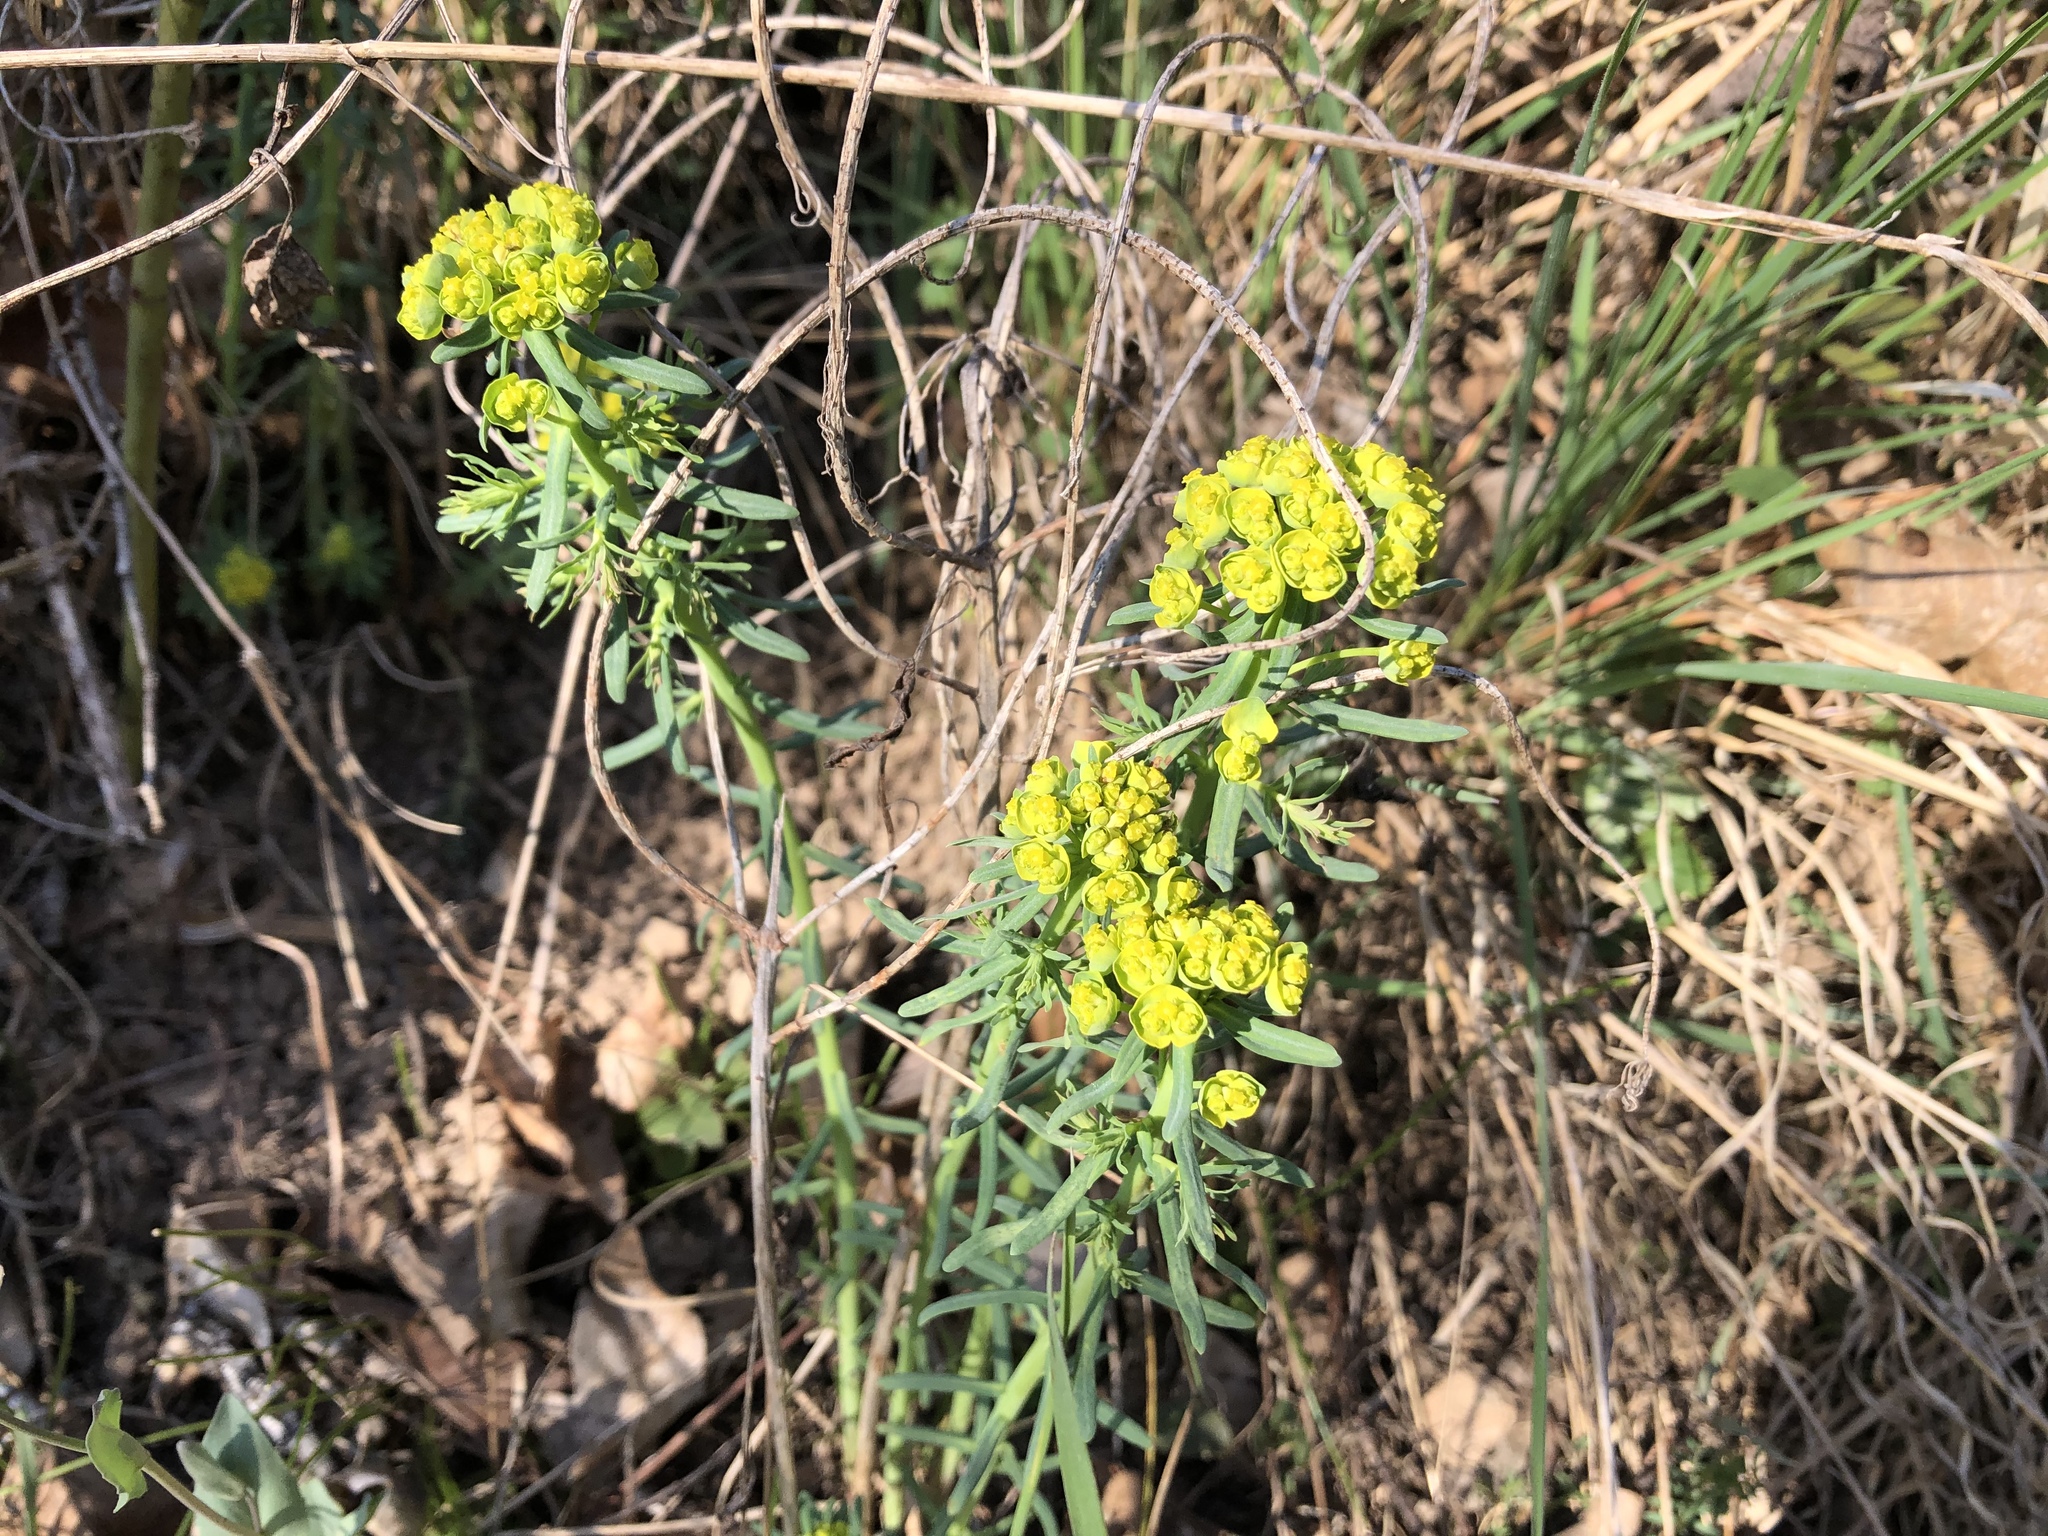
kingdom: Plantae
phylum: Tracheophyta
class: Magnoliopsida
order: Malpighiales
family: Euphorbiaceae
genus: Euphorbia
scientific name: Euphorbia cyparissias
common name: Cypress spurge
